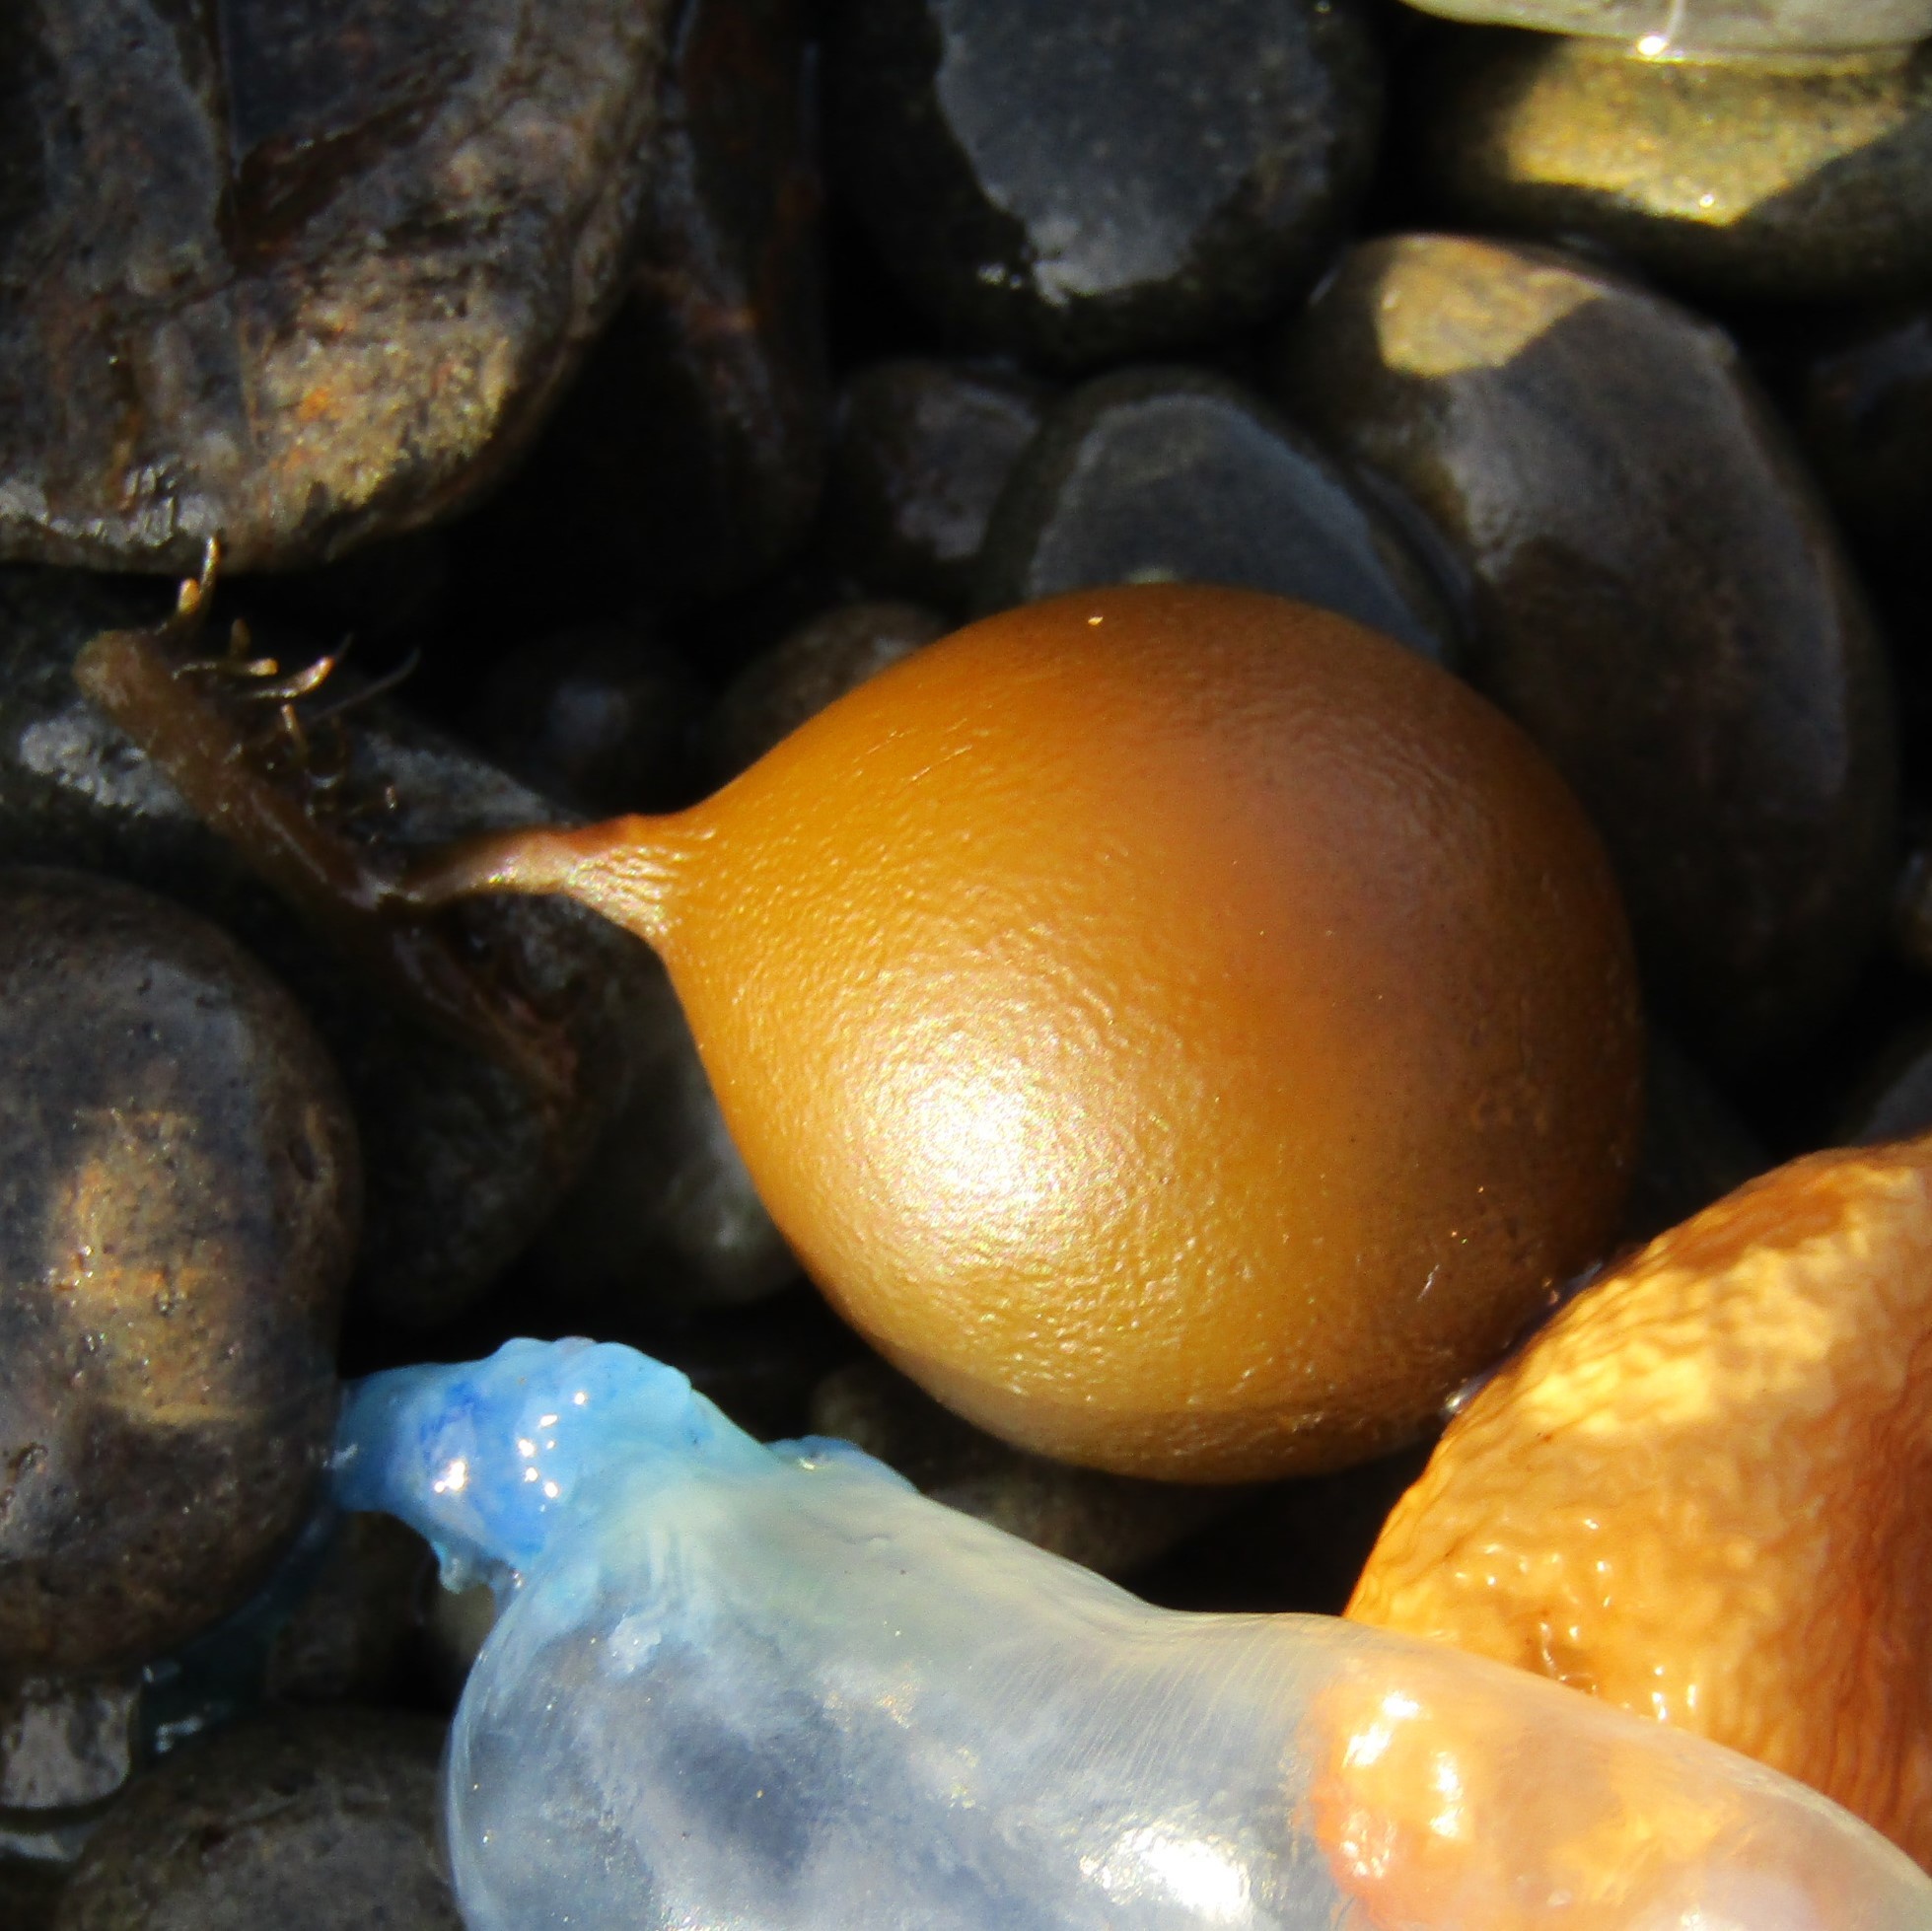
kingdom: Chromista
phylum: Ochrophyta
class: Phaeophyceae
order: Fucales
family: Seirococcaceae
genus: Marginariella
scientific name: Marginariella urvilliana
